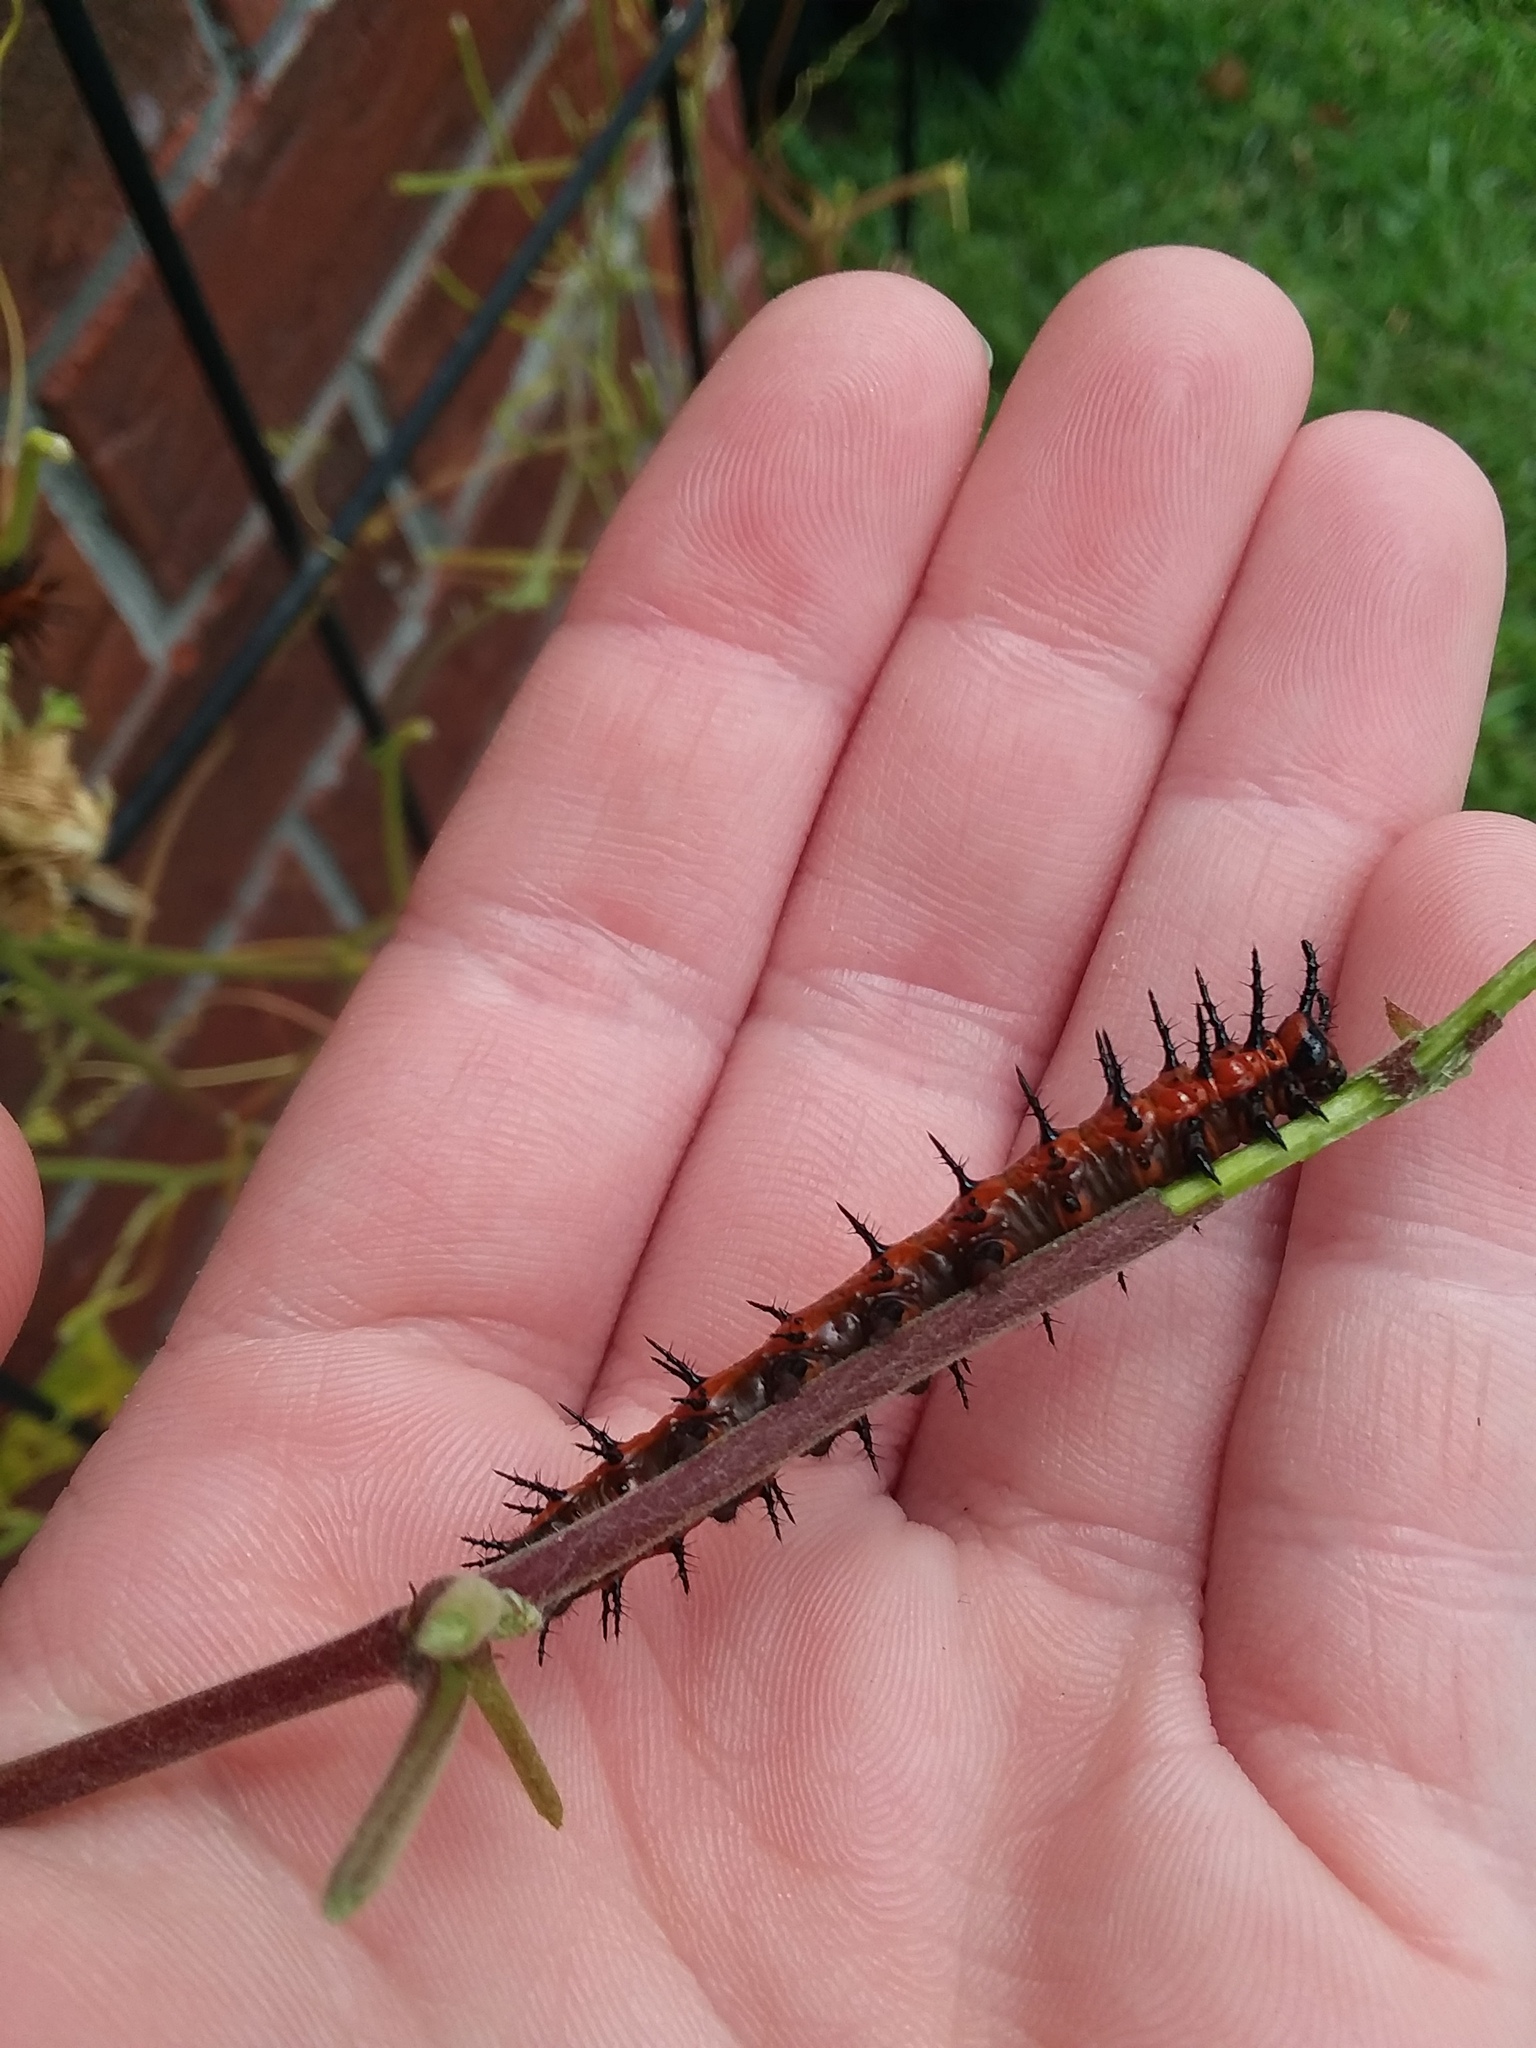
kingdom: Animalia
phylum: Arthropoda
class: Insecta
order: Lepidoptera
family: Nymphalidae
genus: Dione
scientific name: Dione vanillae
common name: Gulf fritillary
